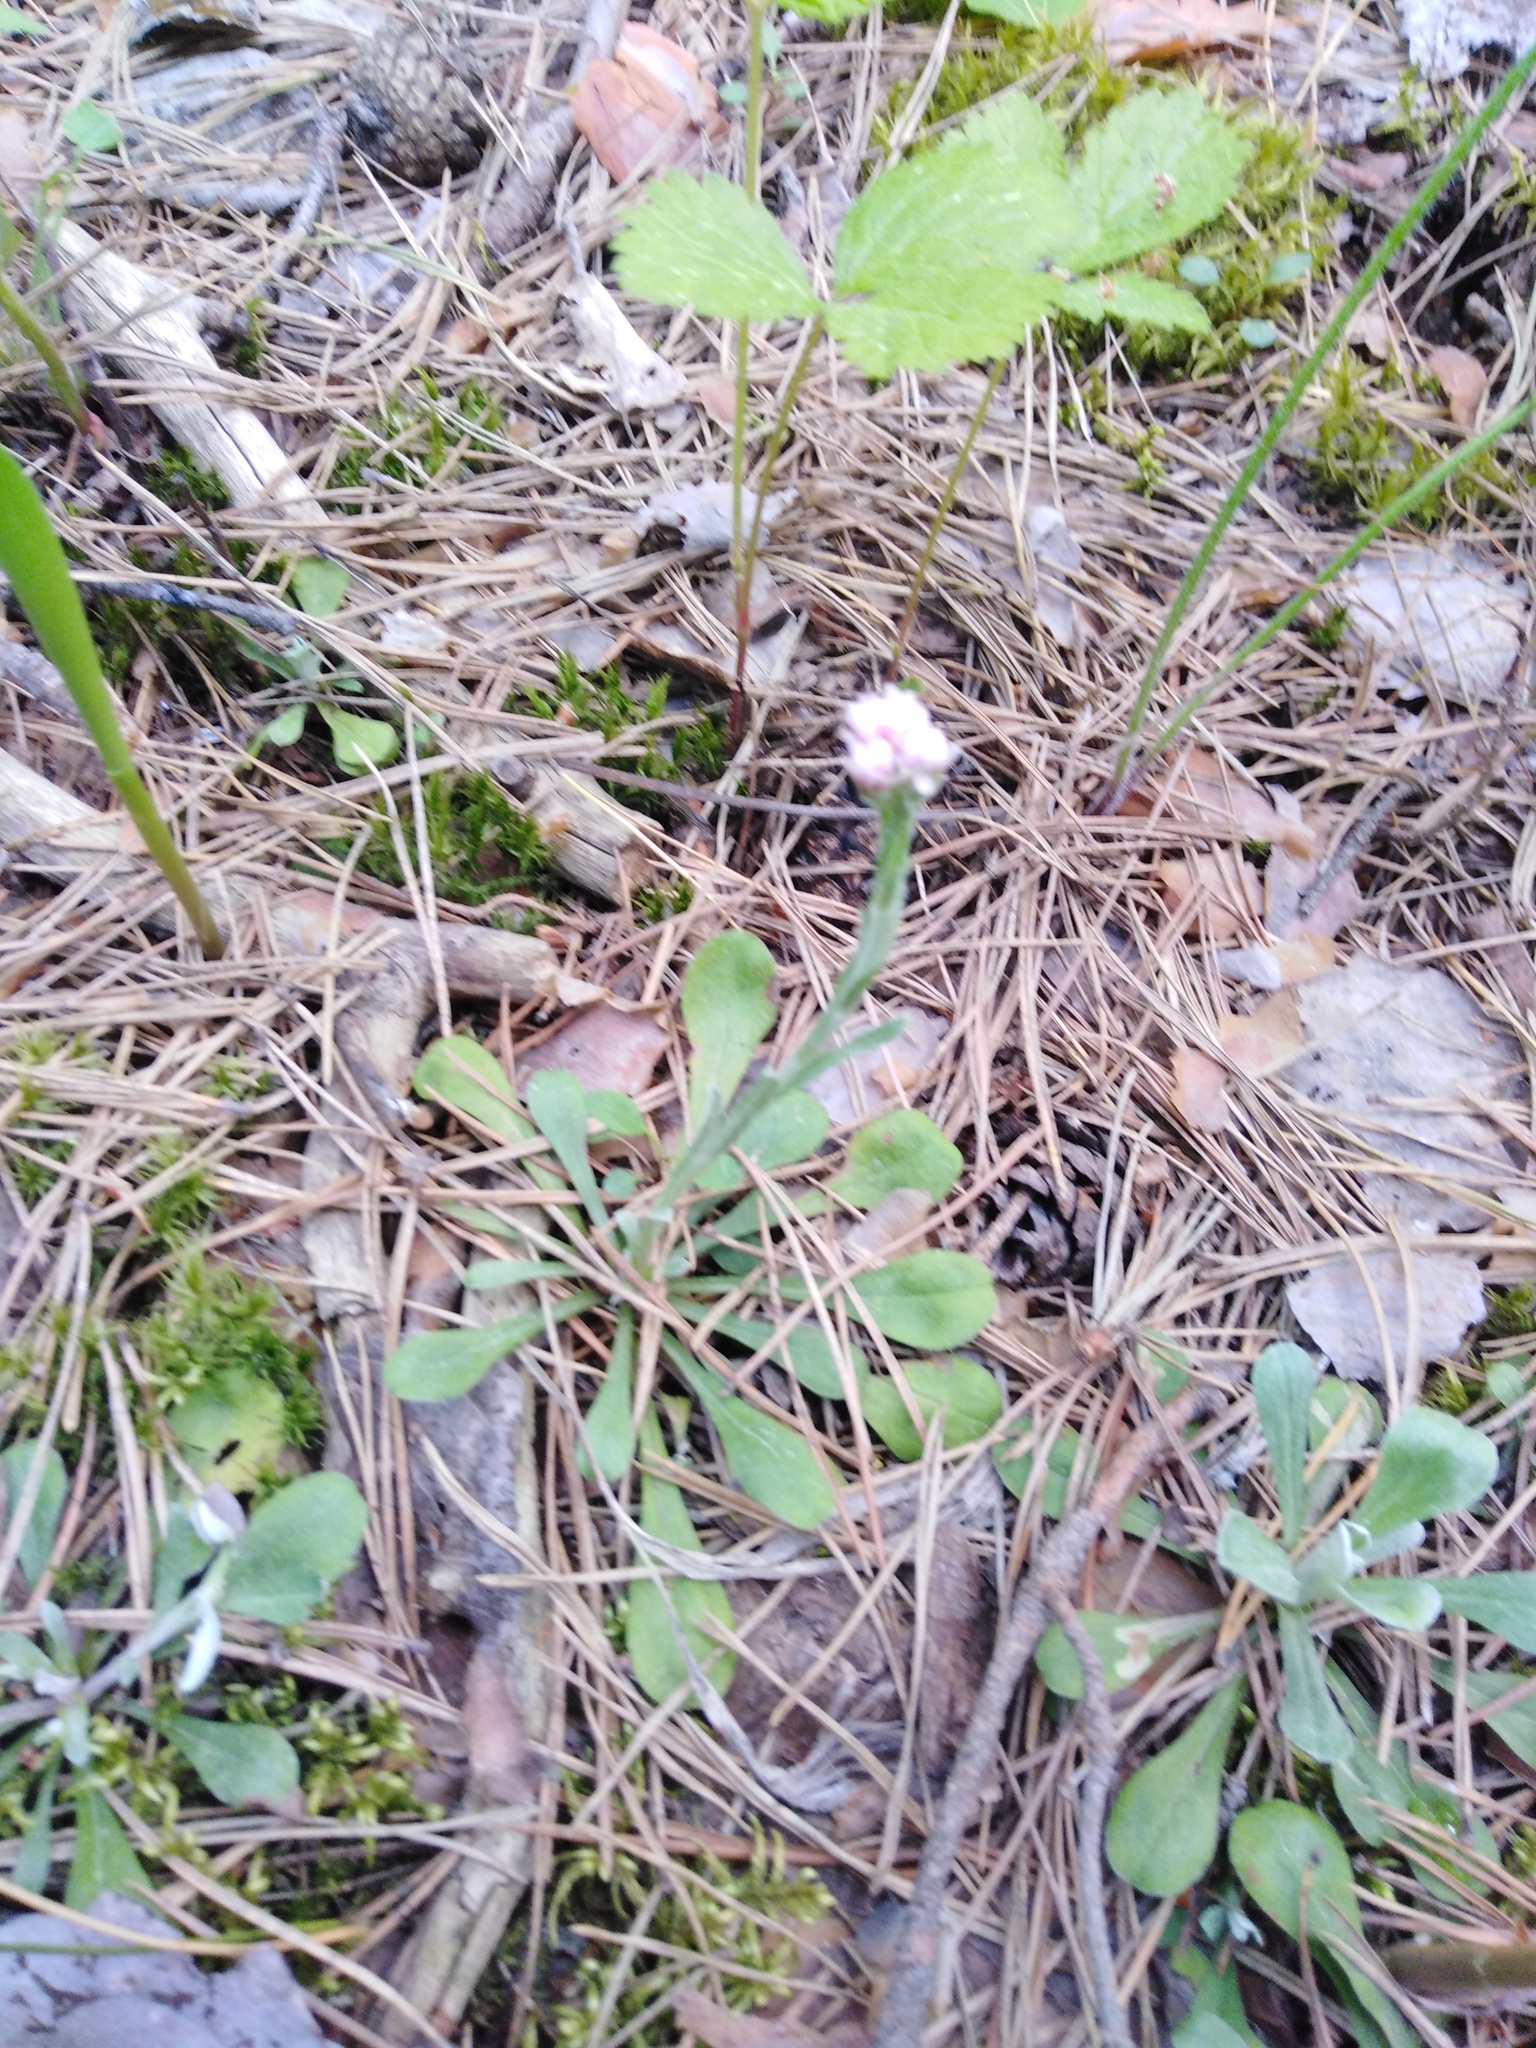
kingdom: Plantae
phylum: Tracheophyta
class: Magnoliopsida
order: Asterales
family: Asteraceae
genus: Antennaria
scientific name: Antennaria dioica
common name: Mountain everlasting
